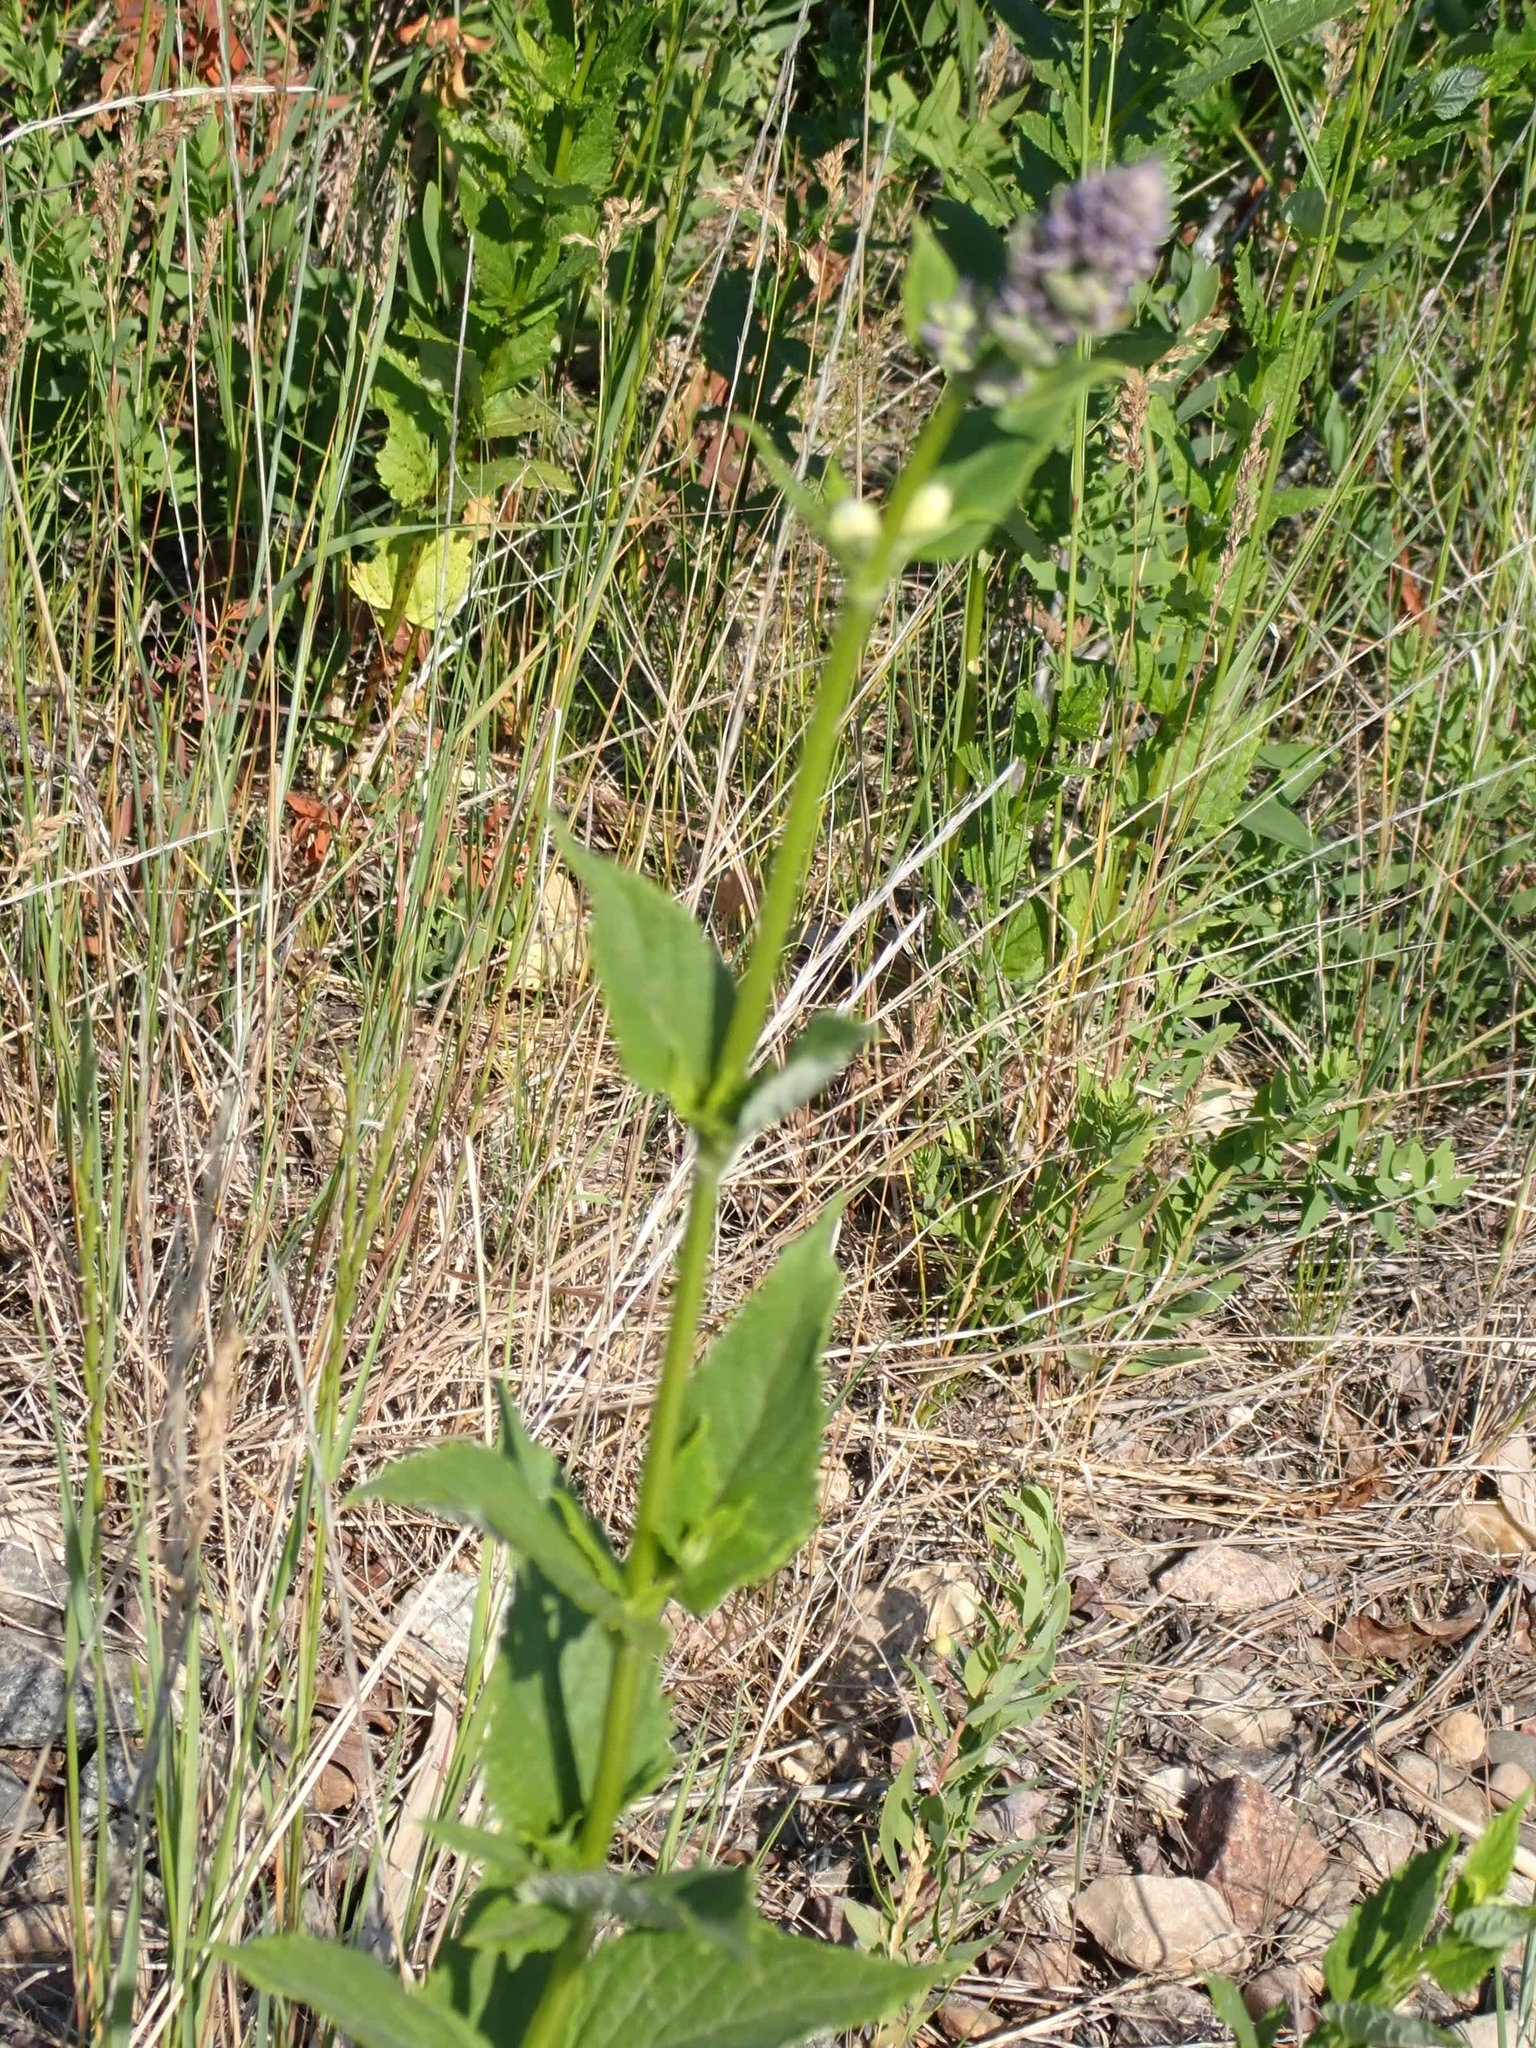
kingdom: Plantae
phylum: Tracheophyta
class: Magnoliopsida
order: Lamiales
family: Lamiaceae
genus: Agastache
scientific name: Agastache foeniculum
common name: Anise hyssop
